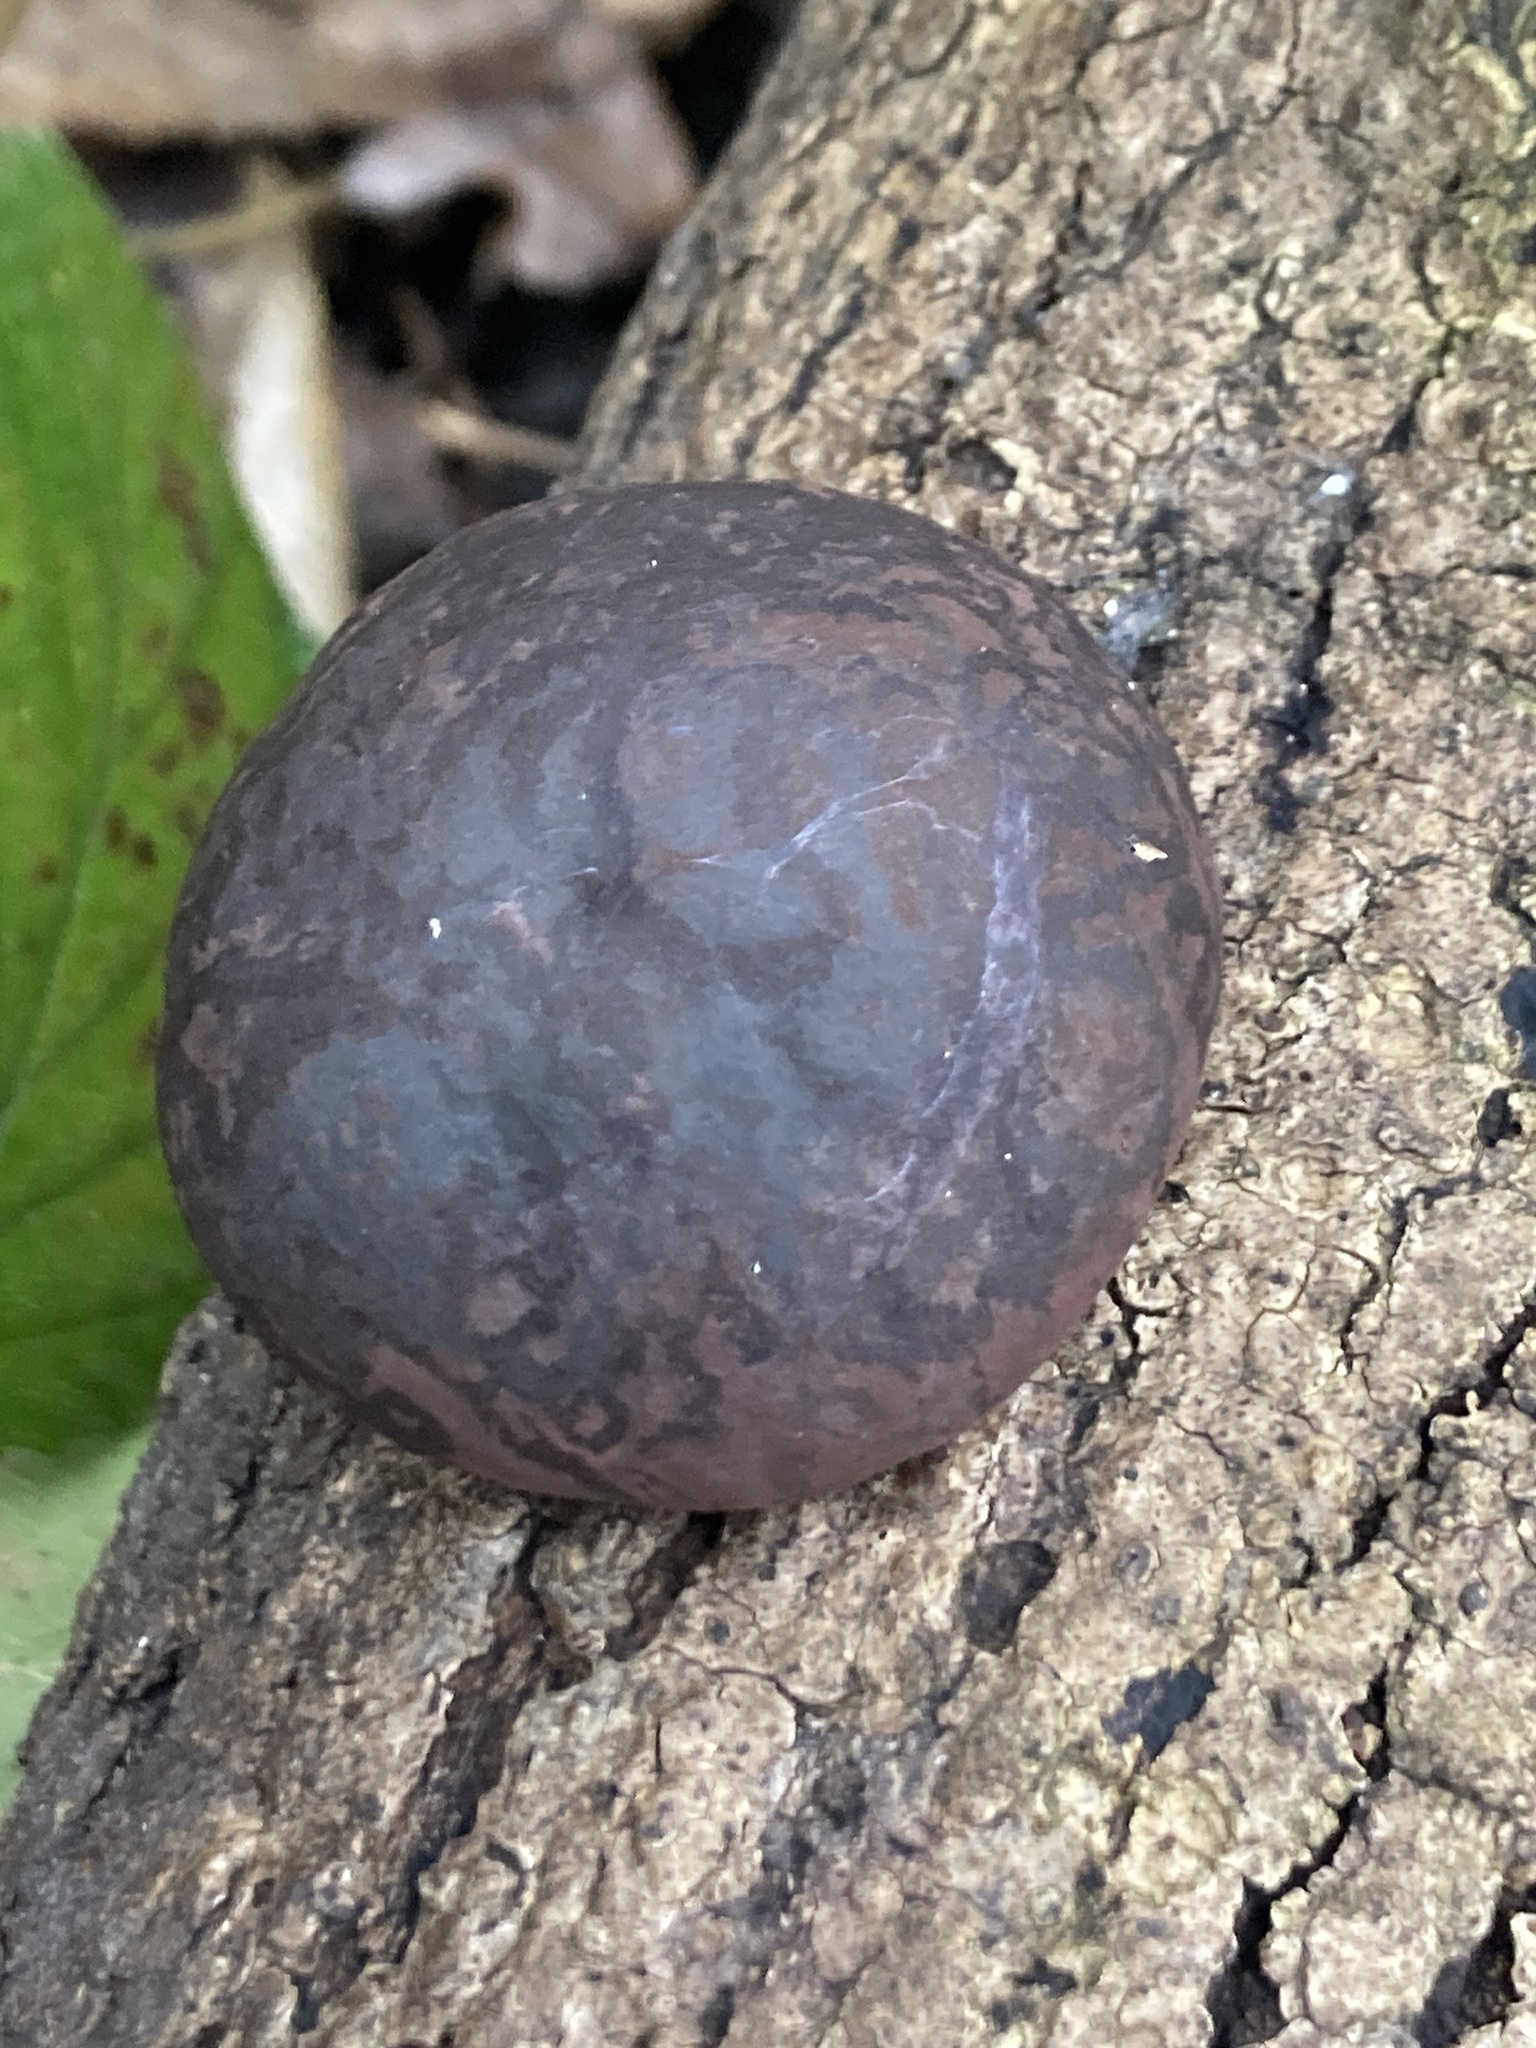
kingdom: Fungi
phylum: Ascomycota
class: Sordariomycetes
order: Xylariales
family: Hypoxylaceae
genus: Daldinia
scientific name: Daldinia concentrica
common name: Cramp balls
